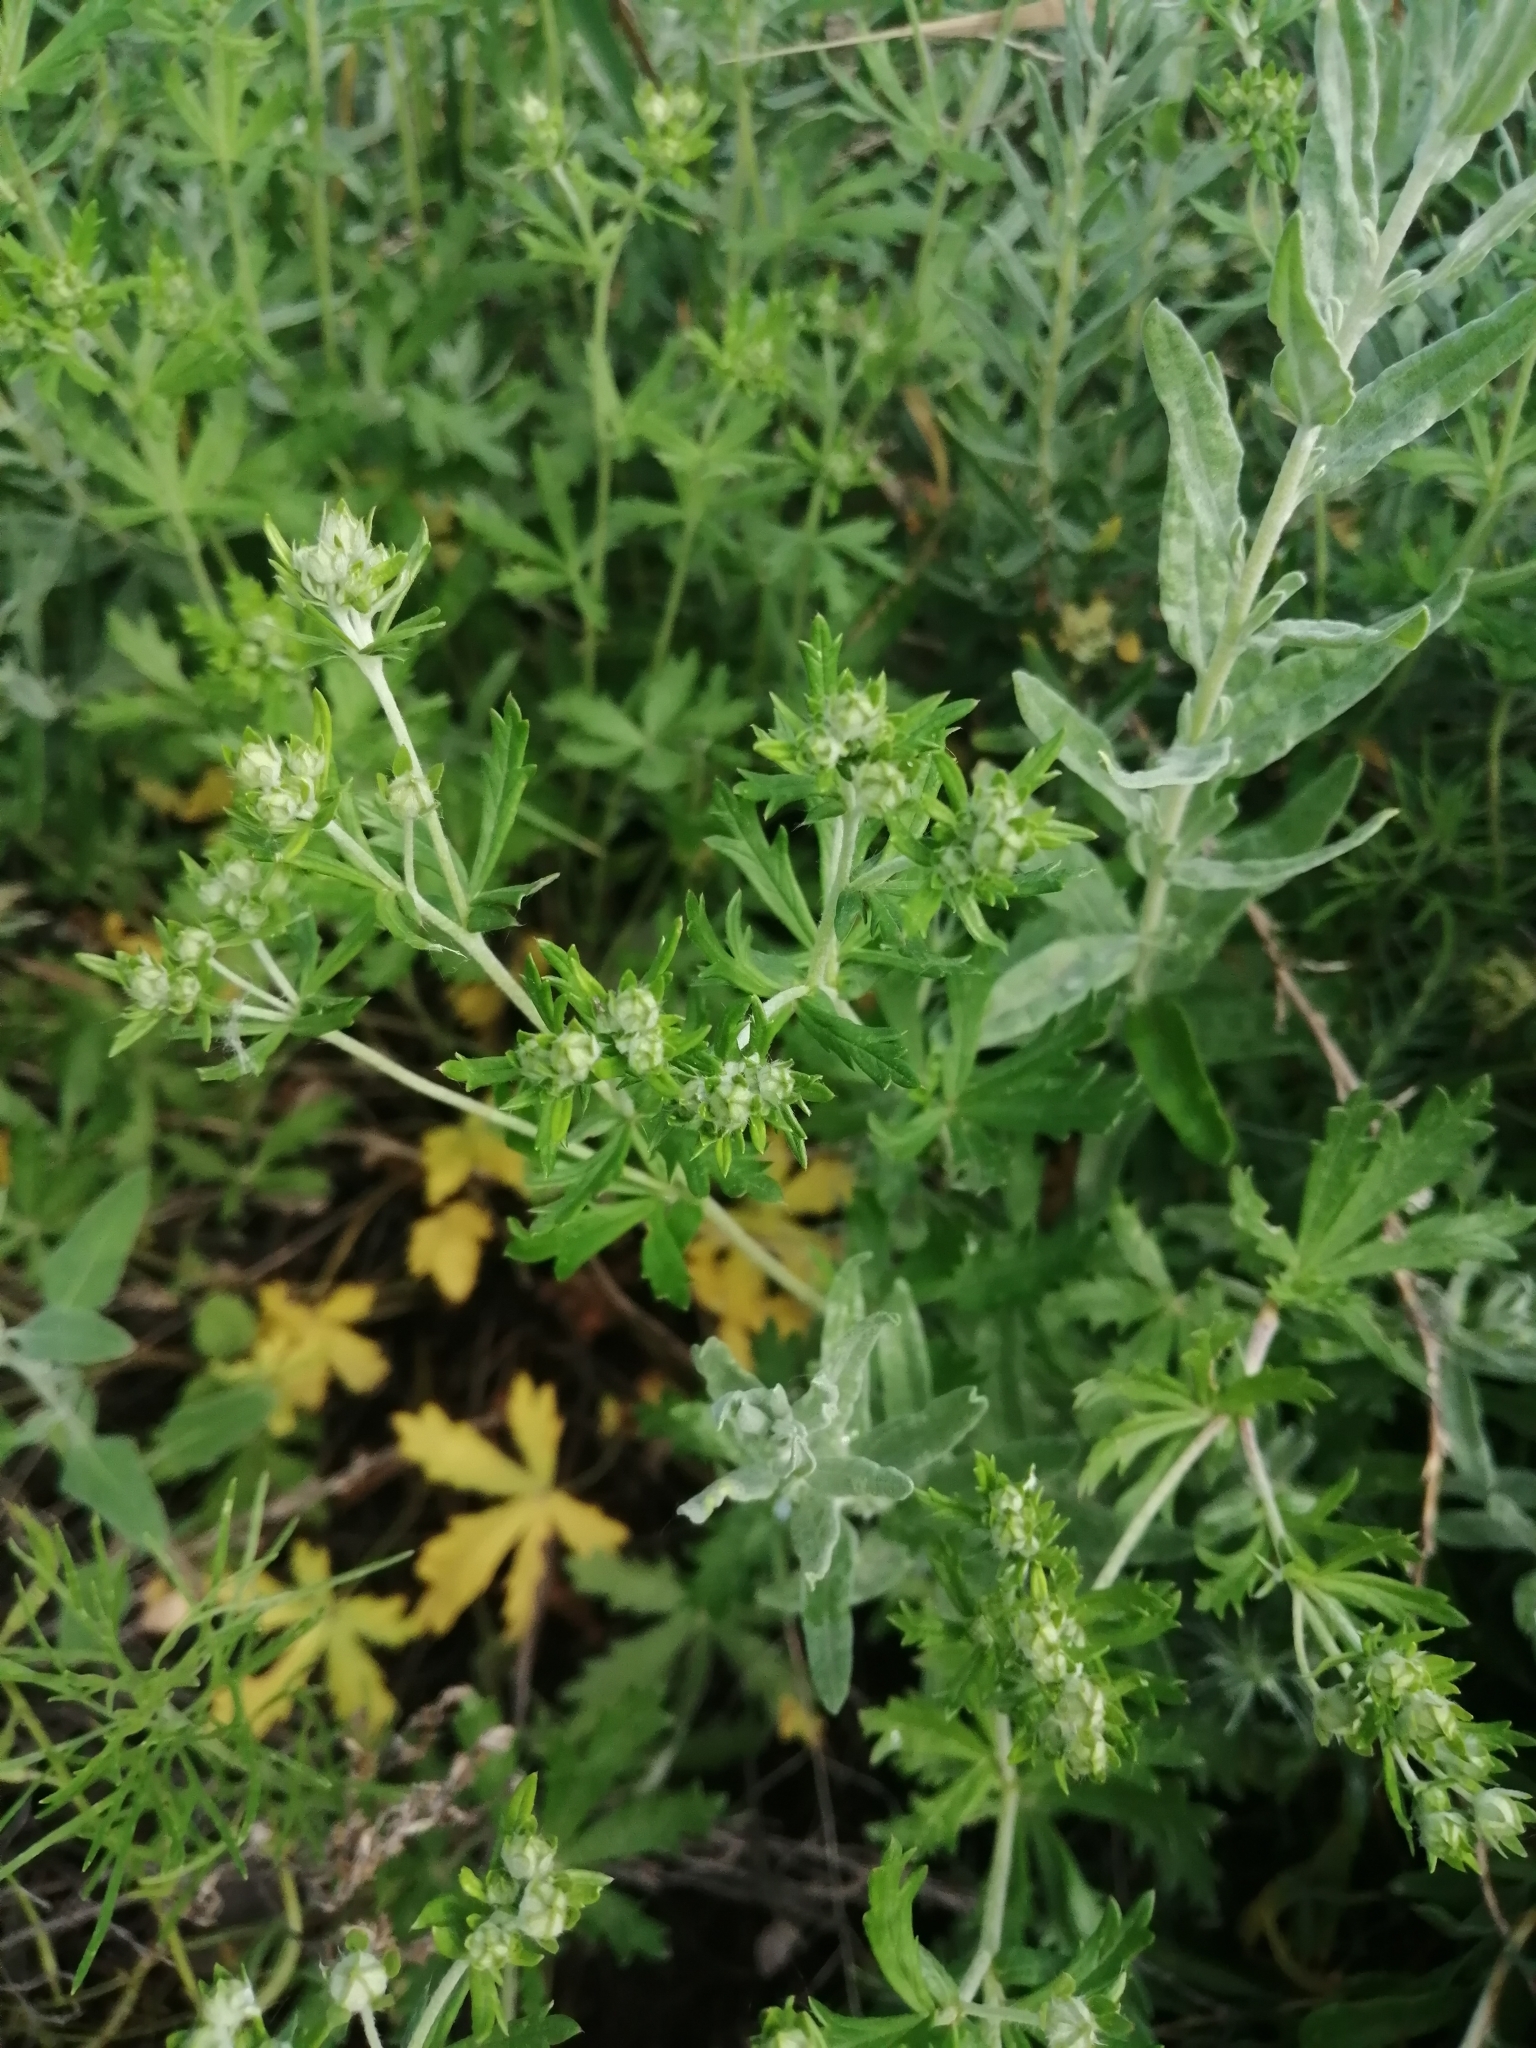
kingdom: Plantae
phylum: Tracheophyta
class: Magnoliopsida
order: Rosales
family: Rosaceae
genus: Potentilla
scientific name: Potentilla argentea
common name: Hoary cinquefoil
